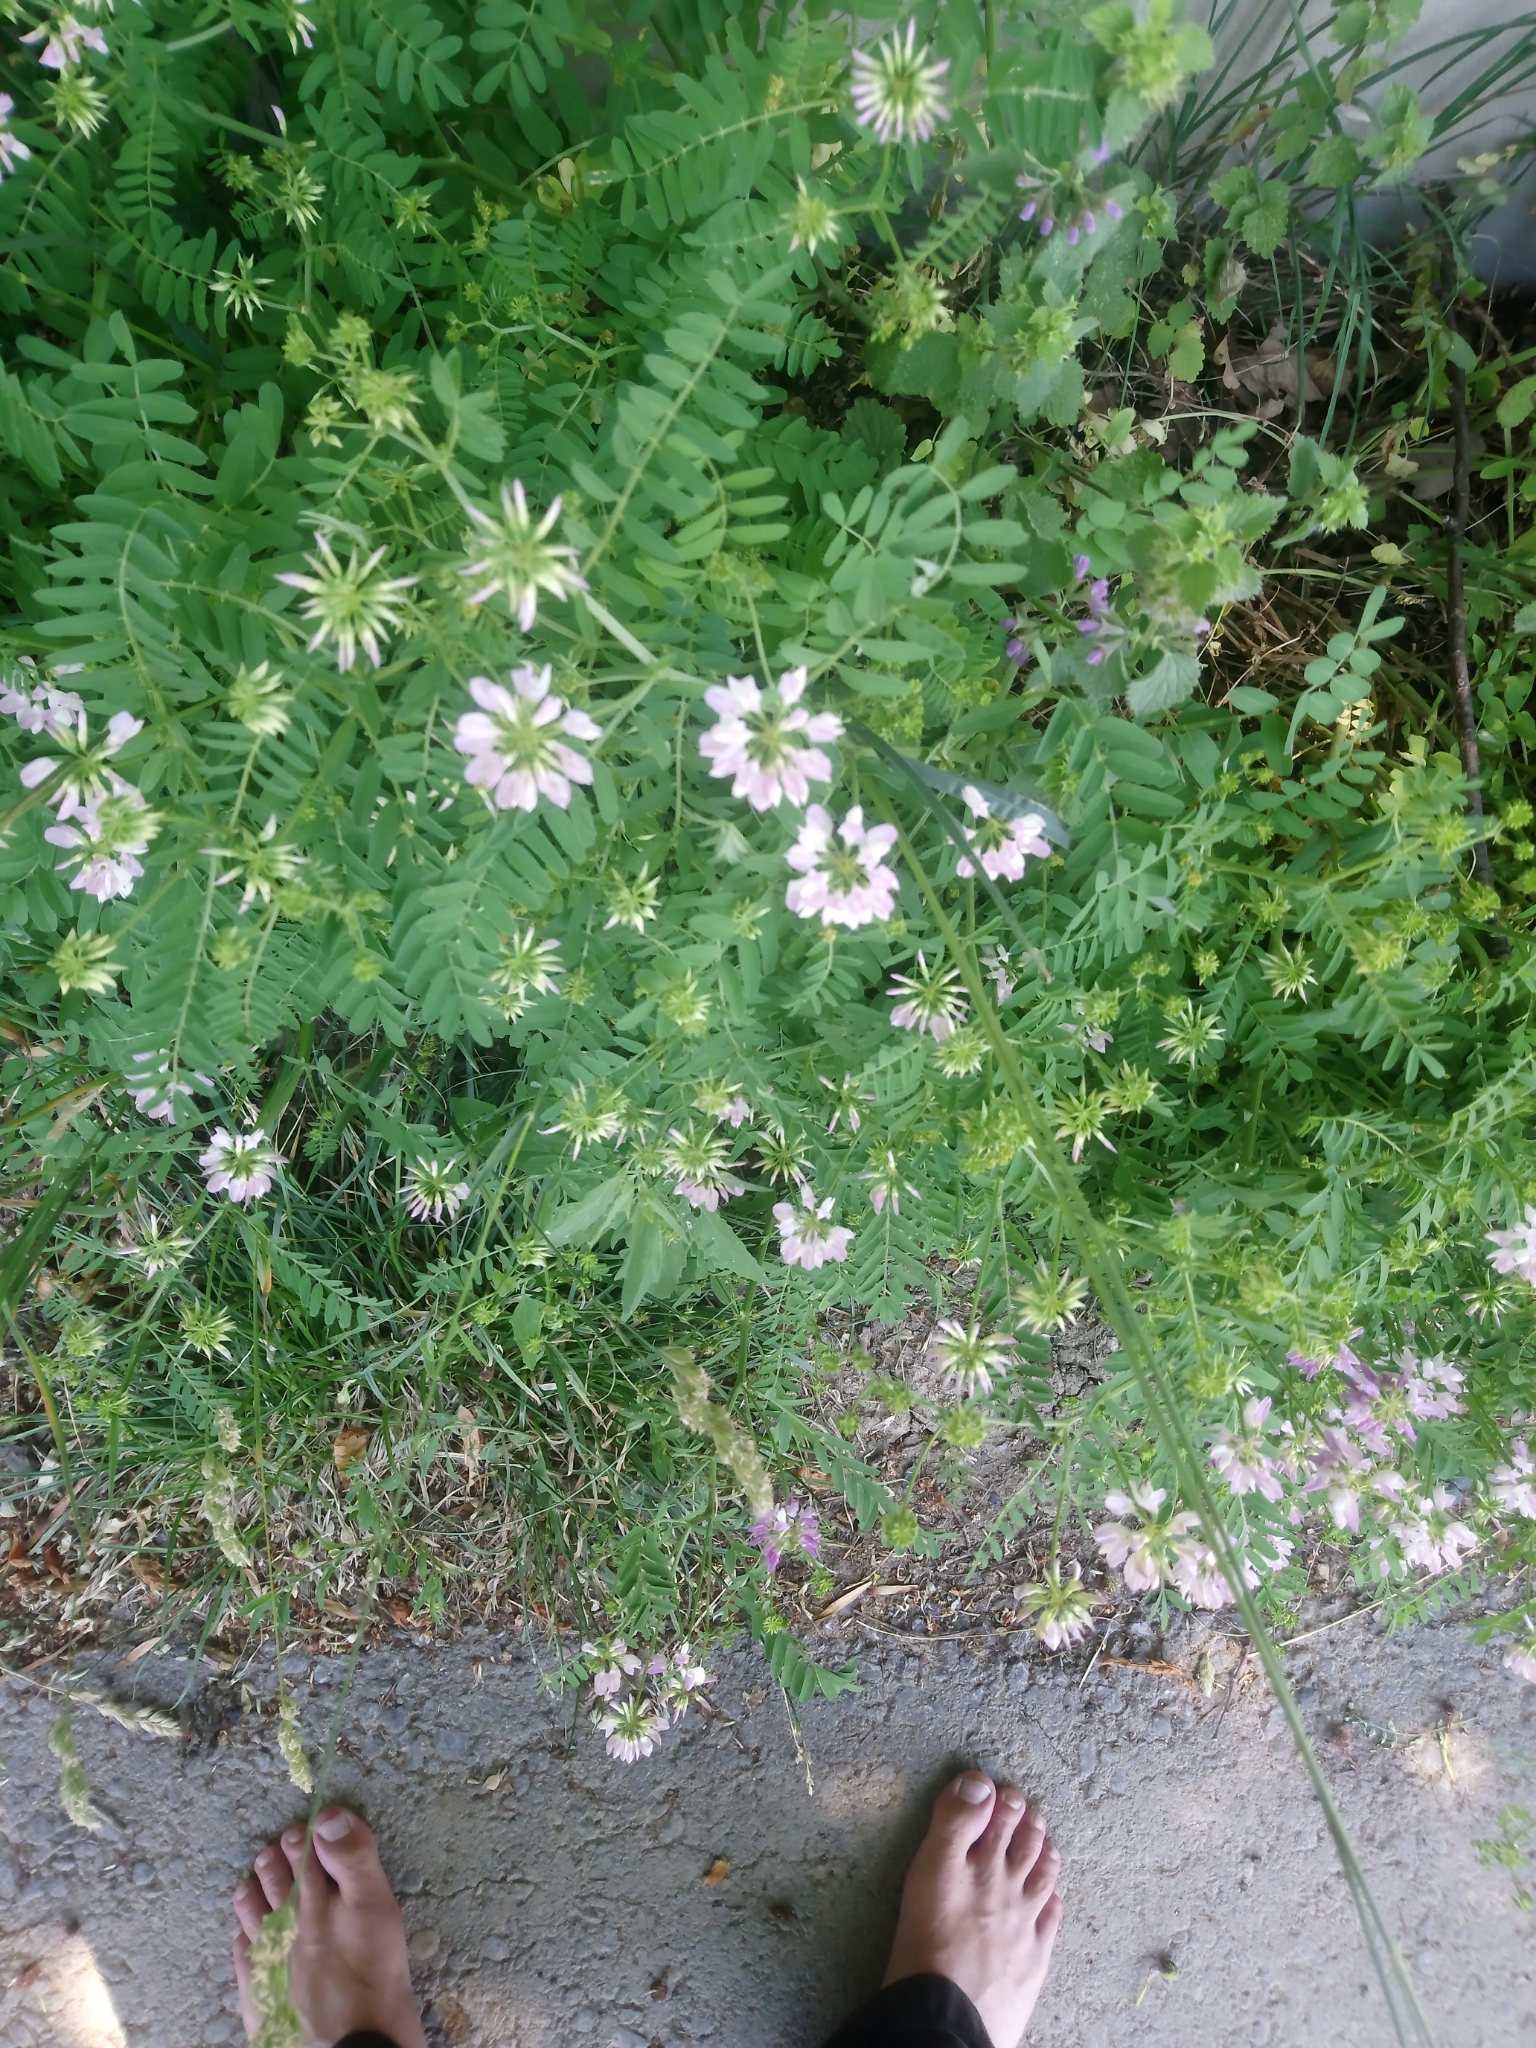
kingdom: Plantae
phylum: Tracheophyta
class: Magnoliopsida
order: Fabales
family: Fabaceae
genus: Coronilla
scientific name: Coronilla varia
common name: Crownvetch
